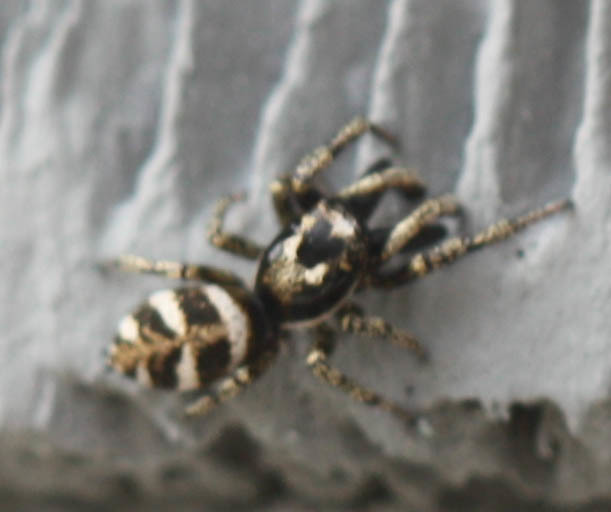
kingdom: Animalia
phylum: Arthropoda
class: Arachnida
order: Araneae
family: Salticidae
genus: Salticus
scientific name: Salticus scenicus
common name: Zebra jumper
